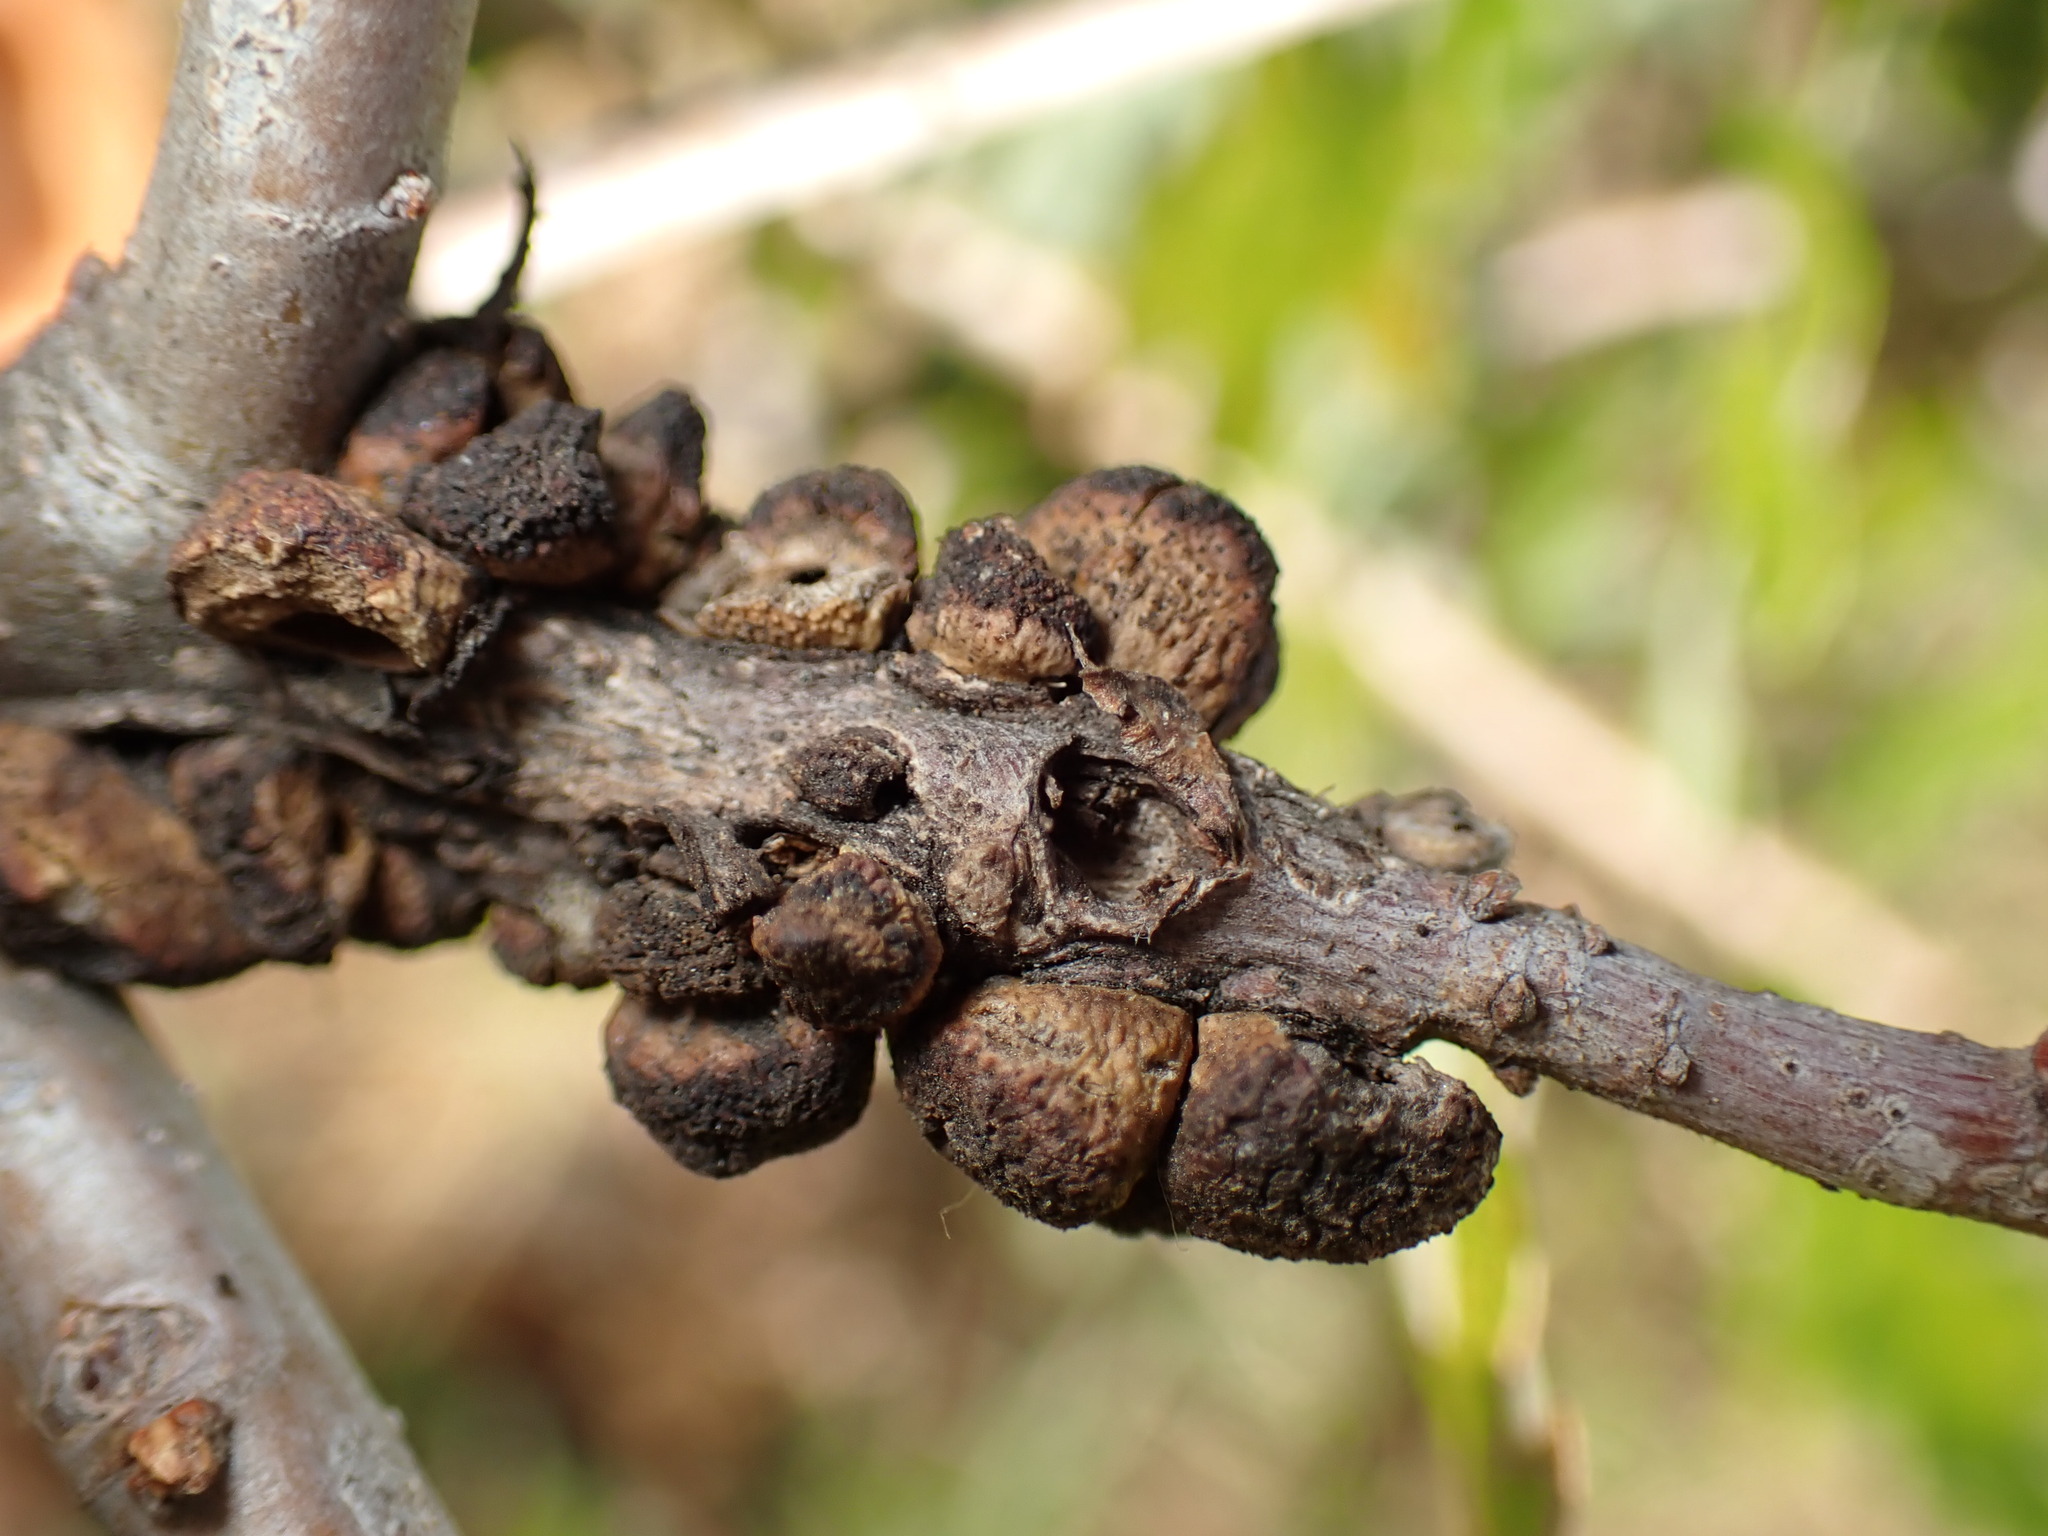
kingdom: Animalia
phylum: Arthropoda
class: Insecta
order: Hymenoptera
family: Cynipidae
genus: Disholcaspis
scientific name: Disholcaspis
